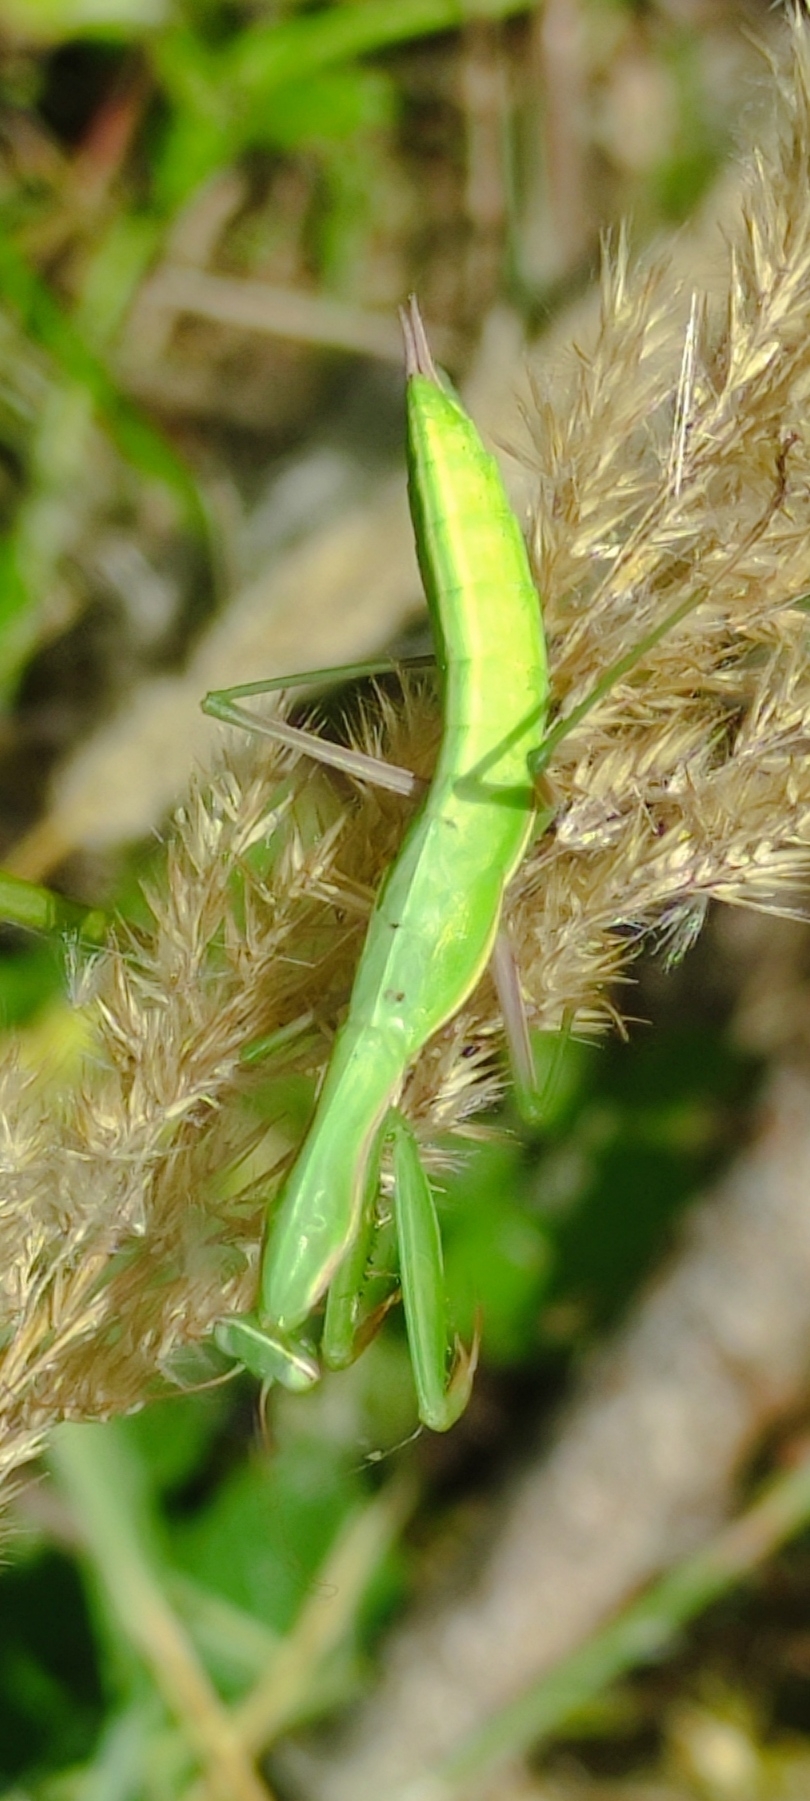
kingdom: Animalia
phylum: Arthropoda
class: Insecta
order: Mantodea
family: Mantidae
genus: Mantis
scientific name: Mantis religiosa
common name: Praying mantis
